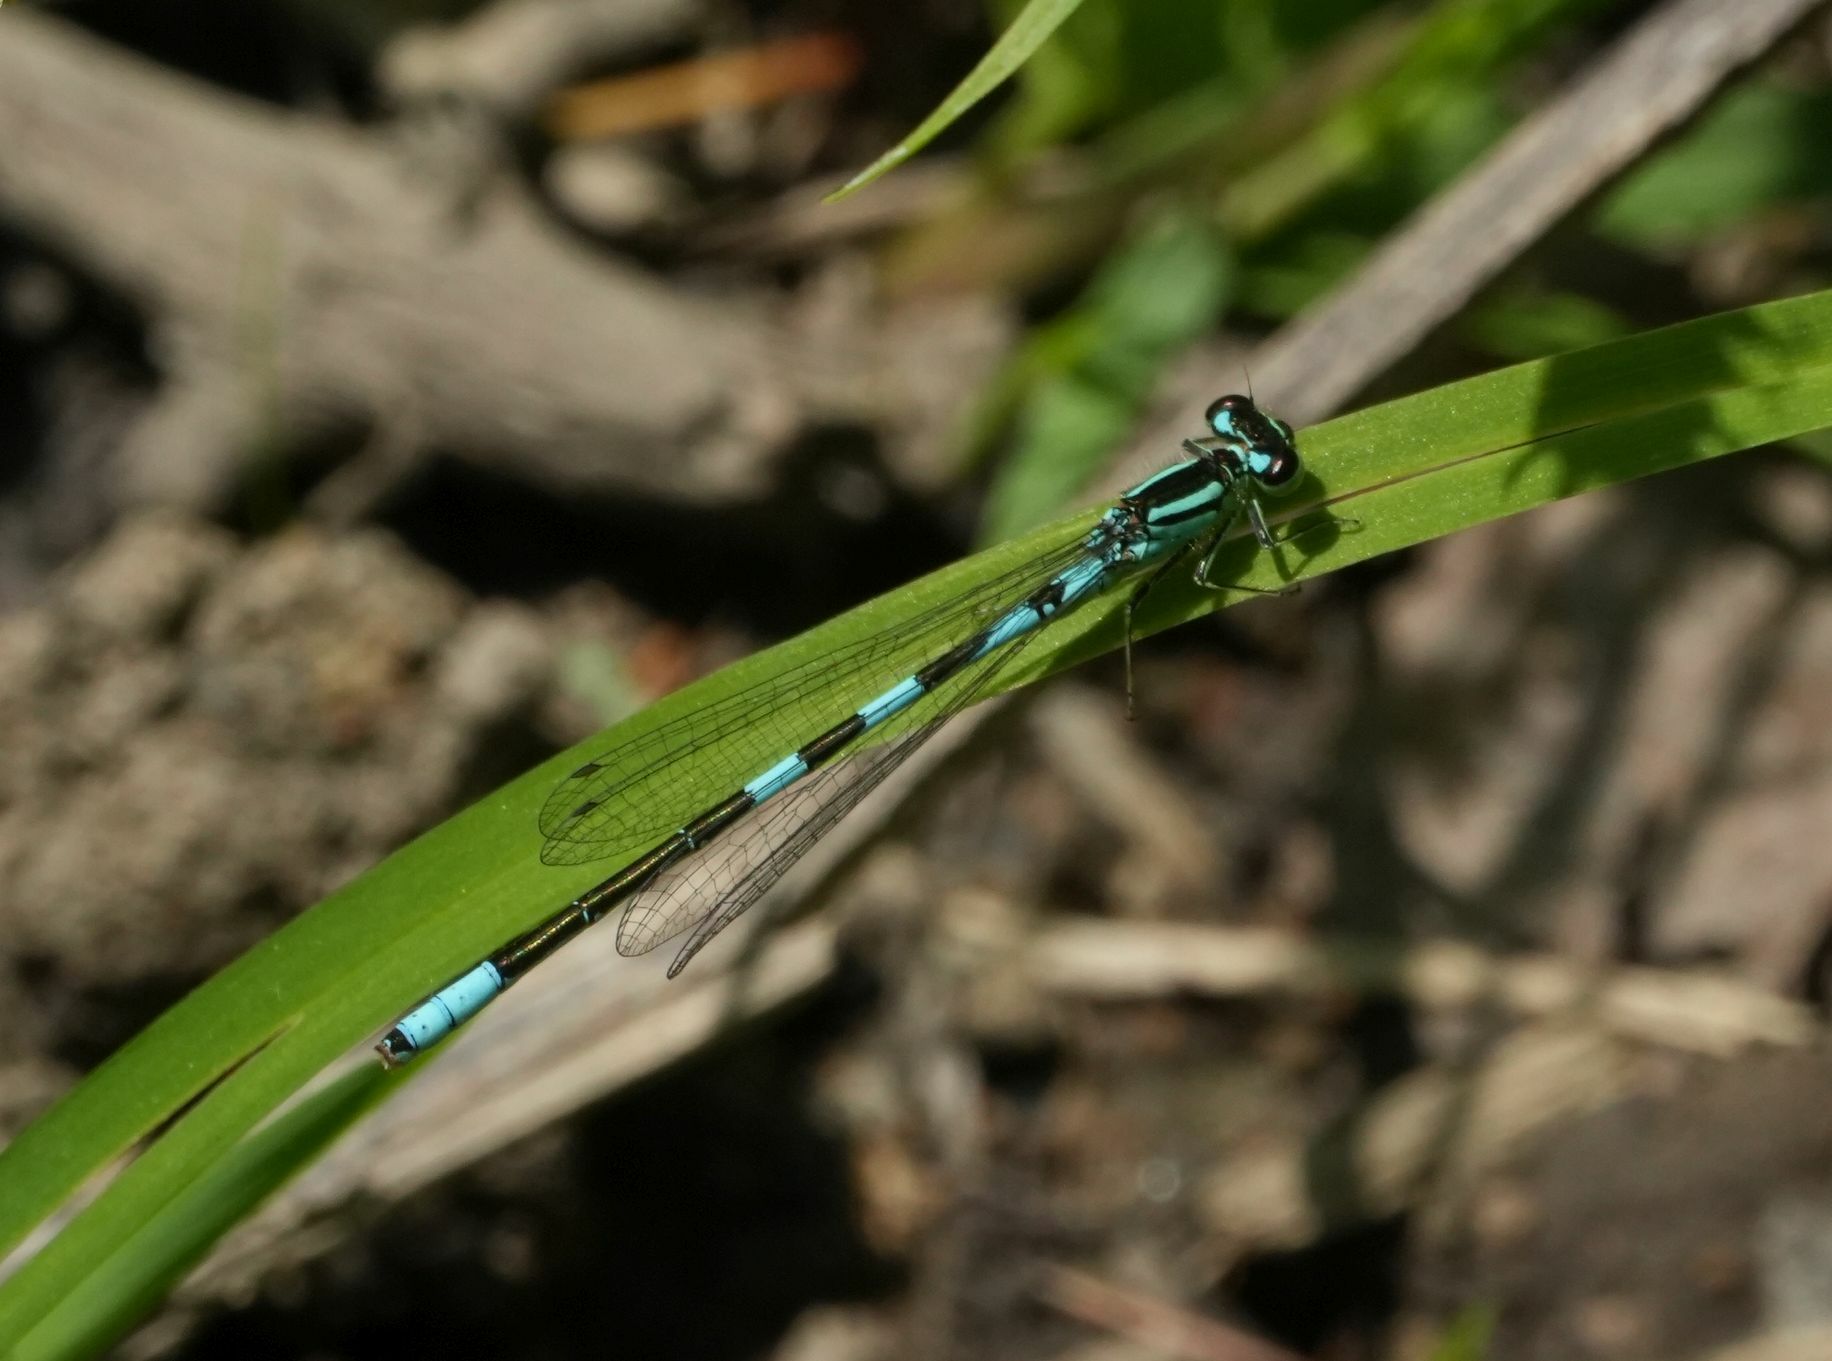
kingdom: Animalia
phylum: Arthropoda
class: Insecta
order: Odonata
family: Coenagrionidae
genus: Coenagrion
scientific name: Coenagrion resolutum
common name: Taiga bluet
